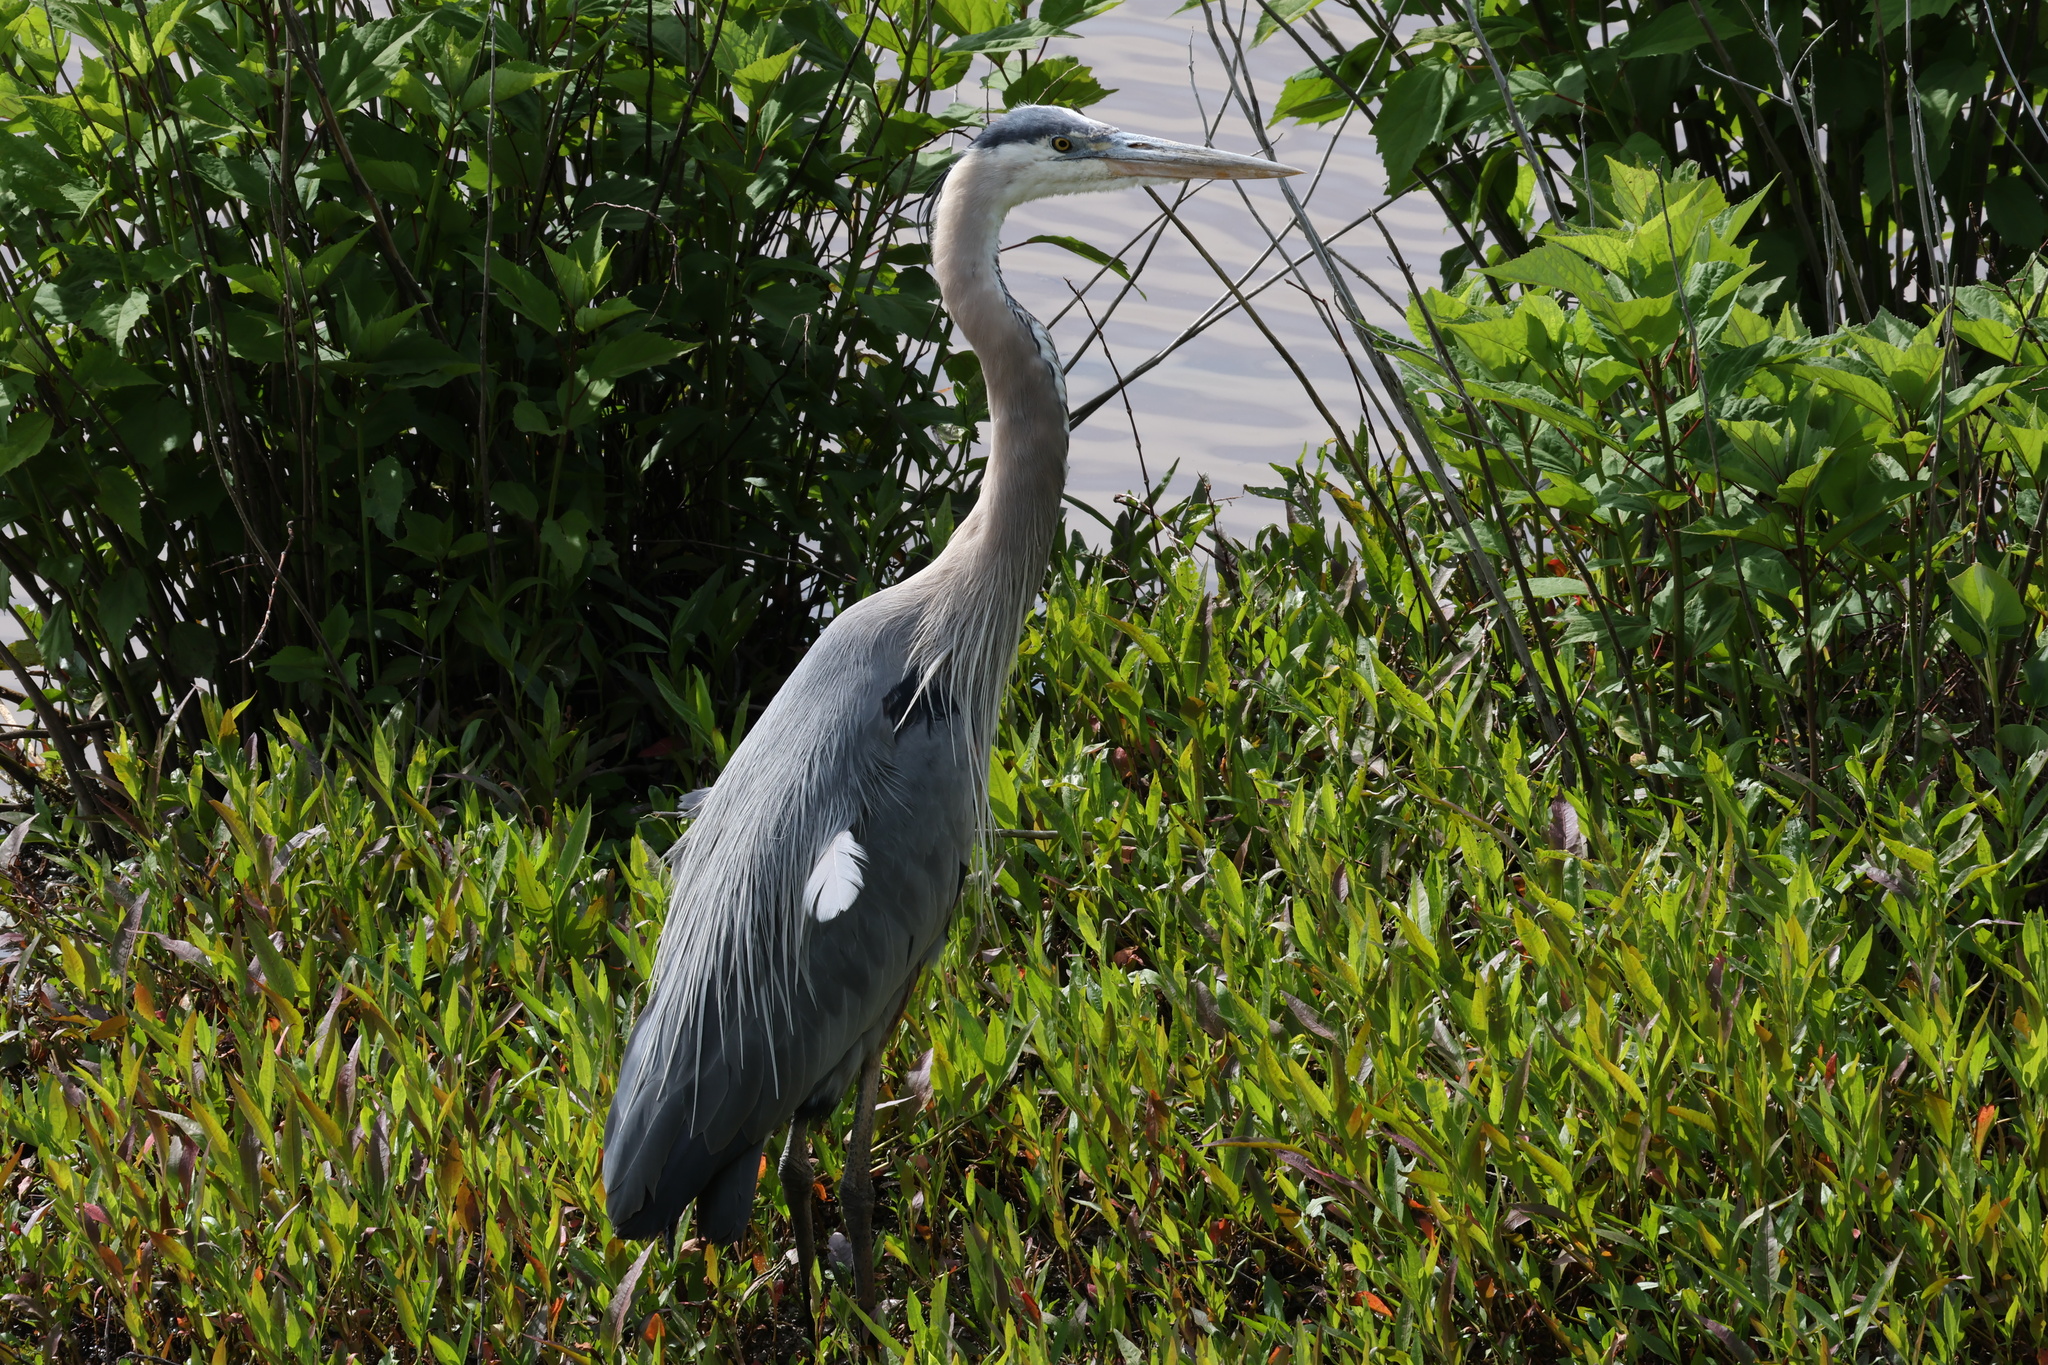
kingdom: Animalia
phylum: Chordata
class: Aves
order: Pelecaniformes
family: Ardeidae
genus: Ardea
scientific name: Ardea herodias
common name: Great blue heron
